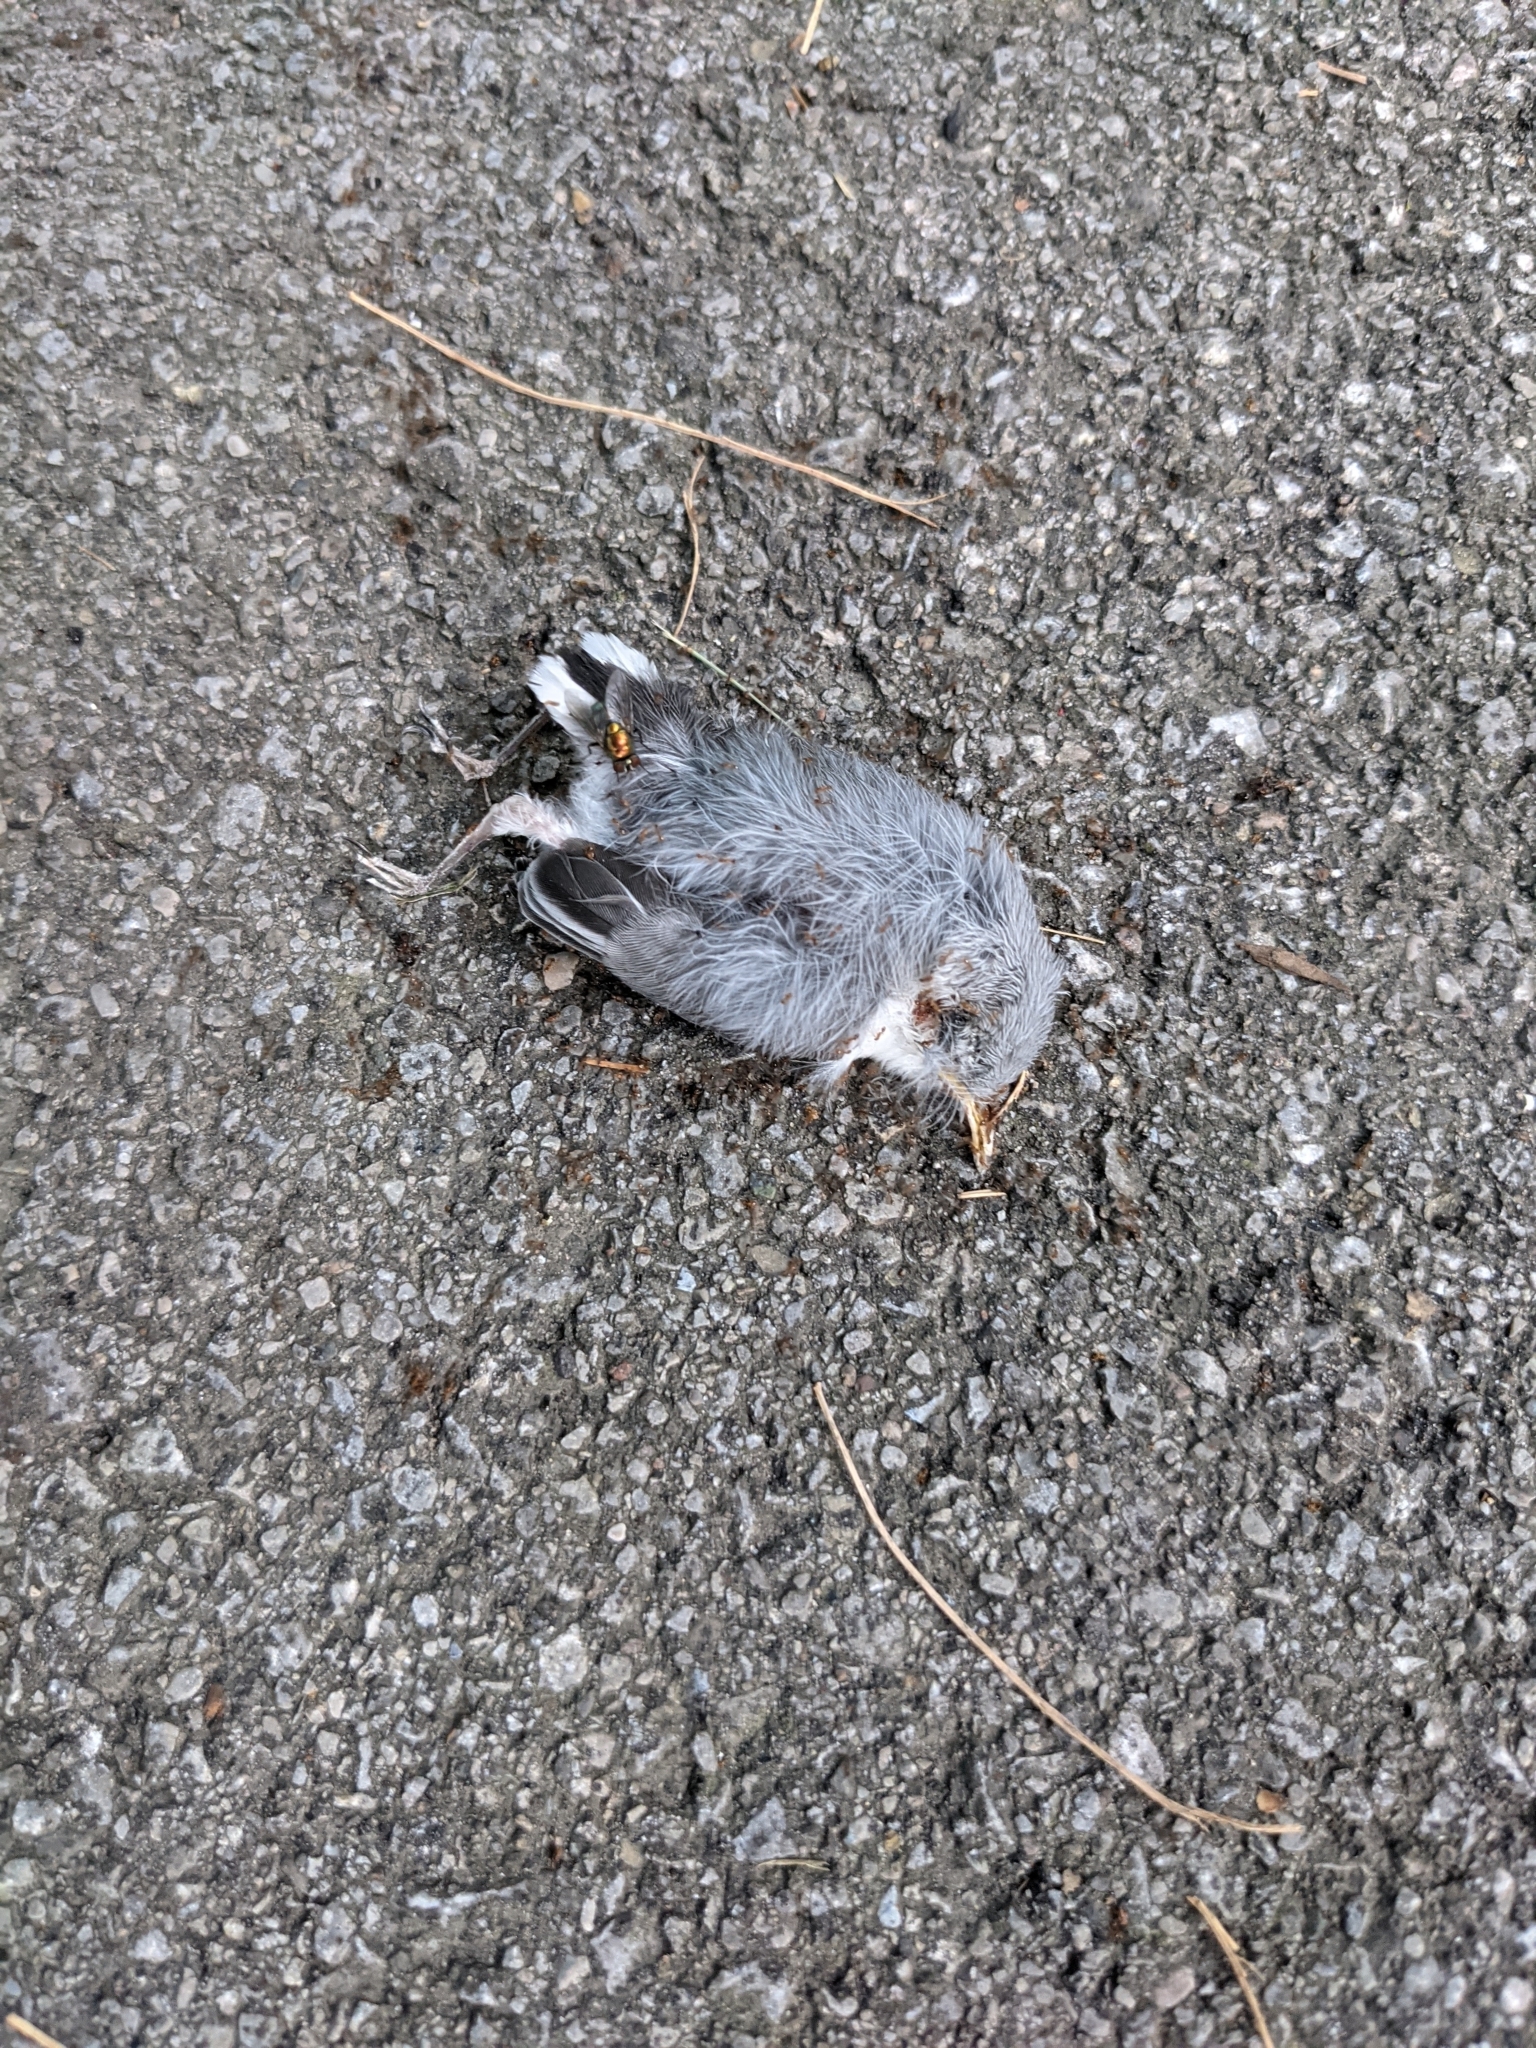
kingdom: Animalia
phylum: Chordata
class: Aves
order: Passeriformes
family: Polioptilidae
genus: Polioptila
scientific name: Polioptila caerulea
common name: Blue-gray gnatcatcher
